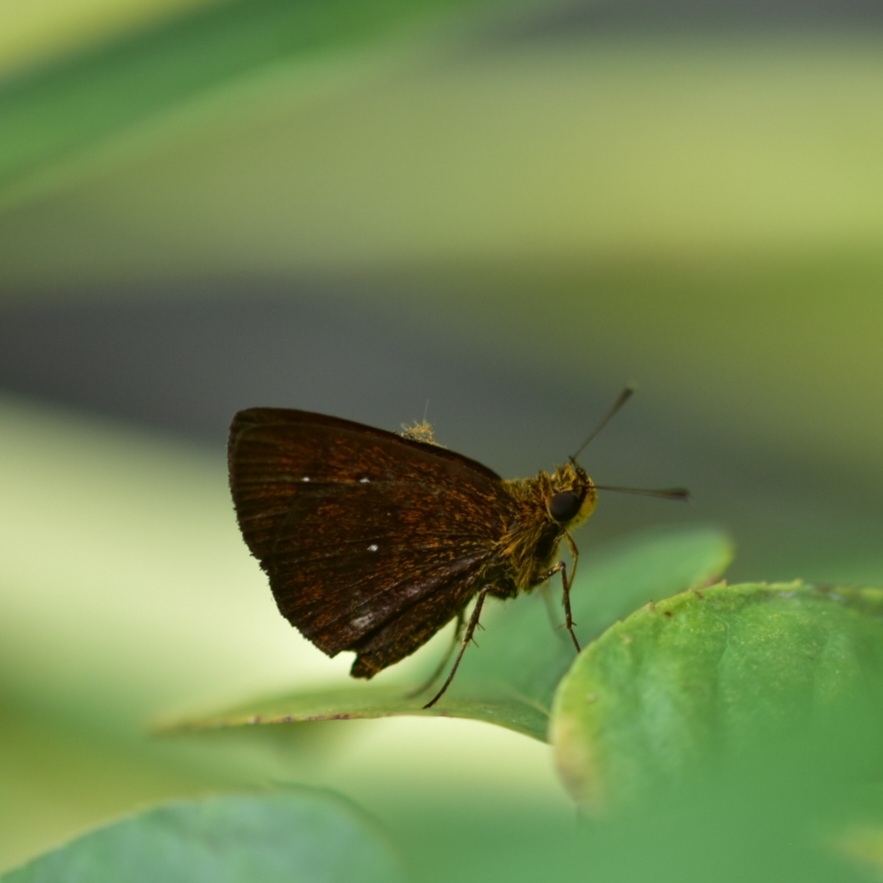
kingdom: Animalia
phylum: Arthropoda
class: Insecta
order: Lepidoptera
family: Hesperiidae
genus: Iambrix
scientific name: Iambrix salsala
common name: Chestnut bob
